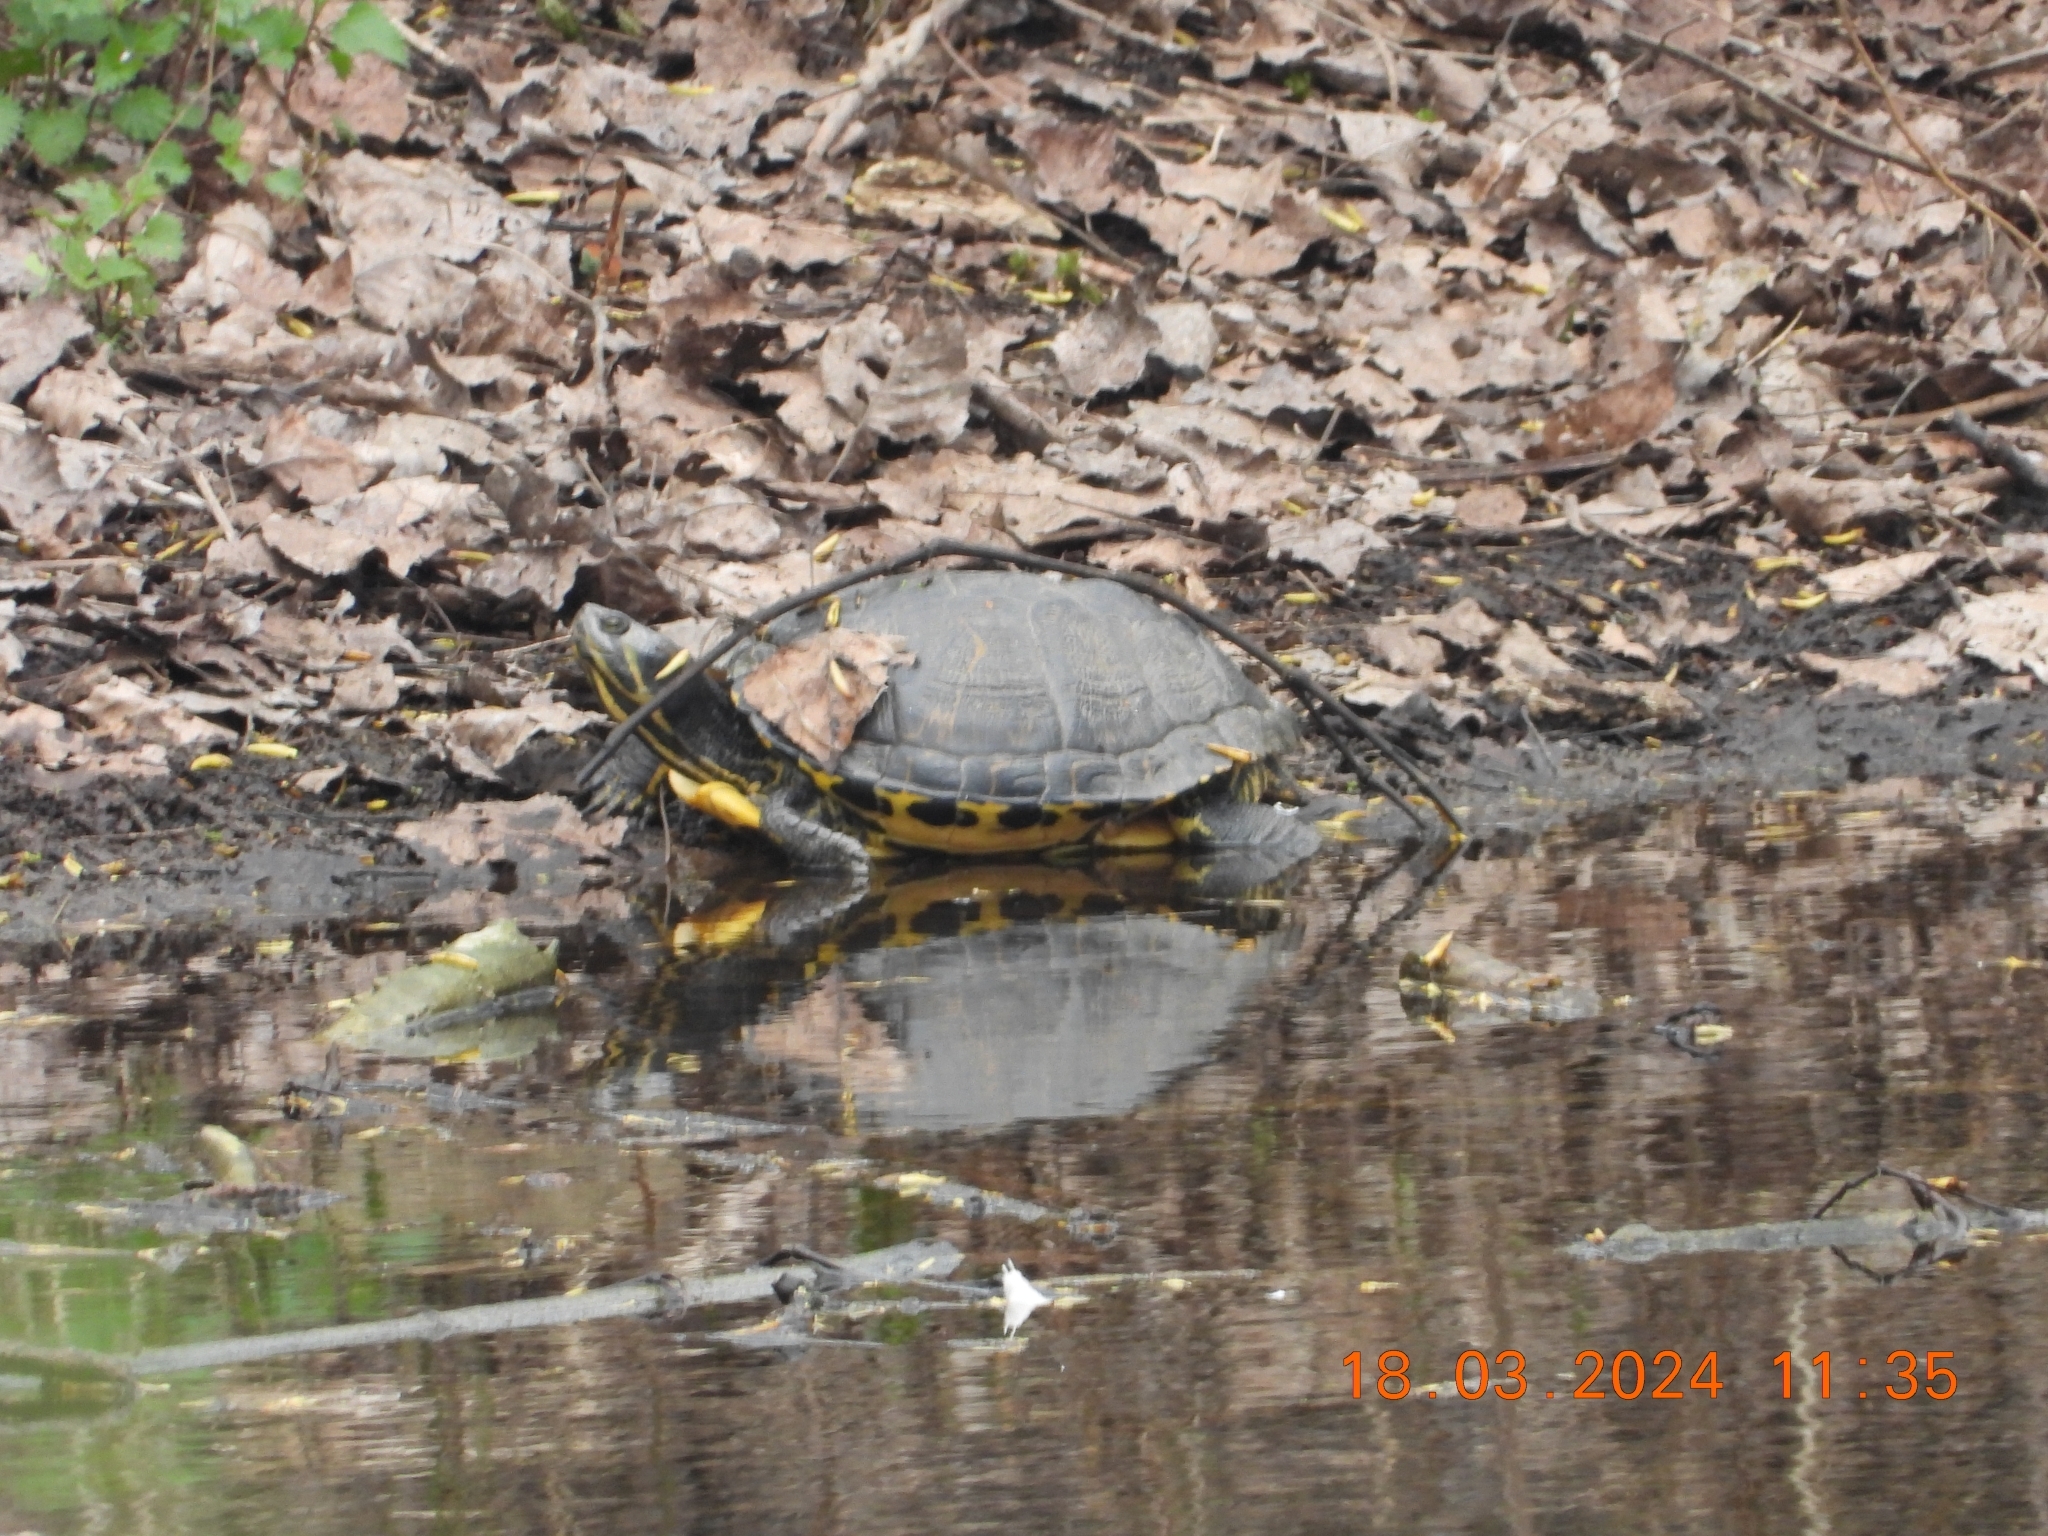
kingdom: Animalia
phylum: Chordata
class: Testudines
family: Emydidae
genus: Trachemys
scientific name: Trachemys scripta
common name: Slider
